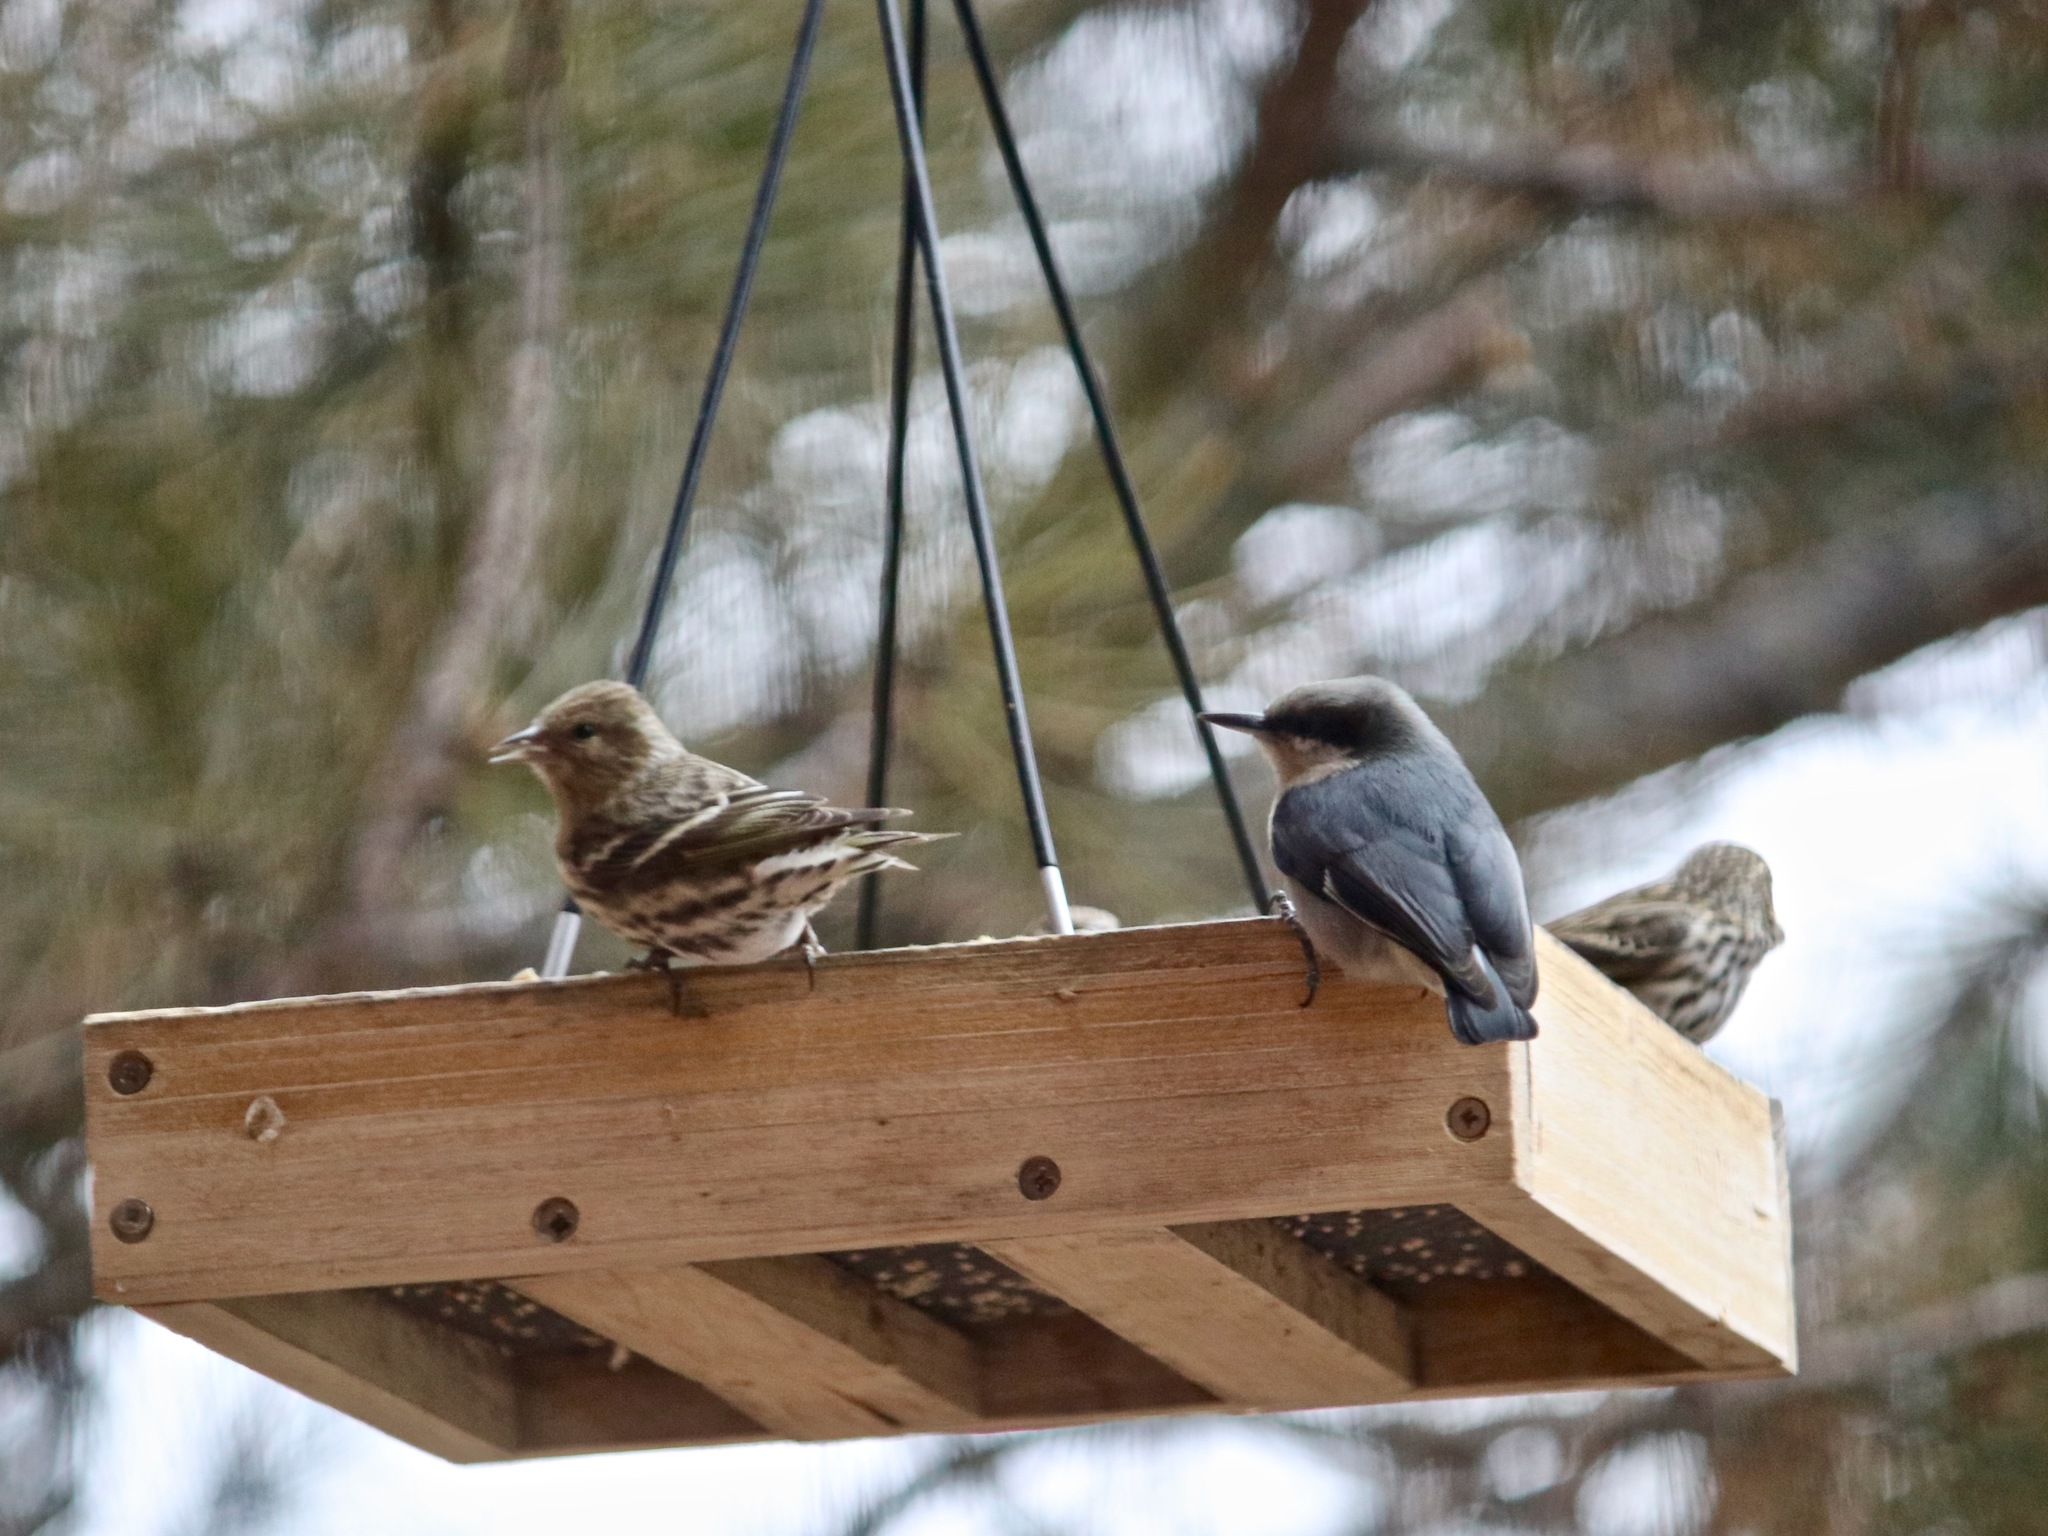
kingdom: Animalia
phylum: Chordata
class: Aves
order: Passeriformes
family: Sittidae
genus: Sitta
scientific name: Sitta pygmaea
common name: Pygmy nuthatch
